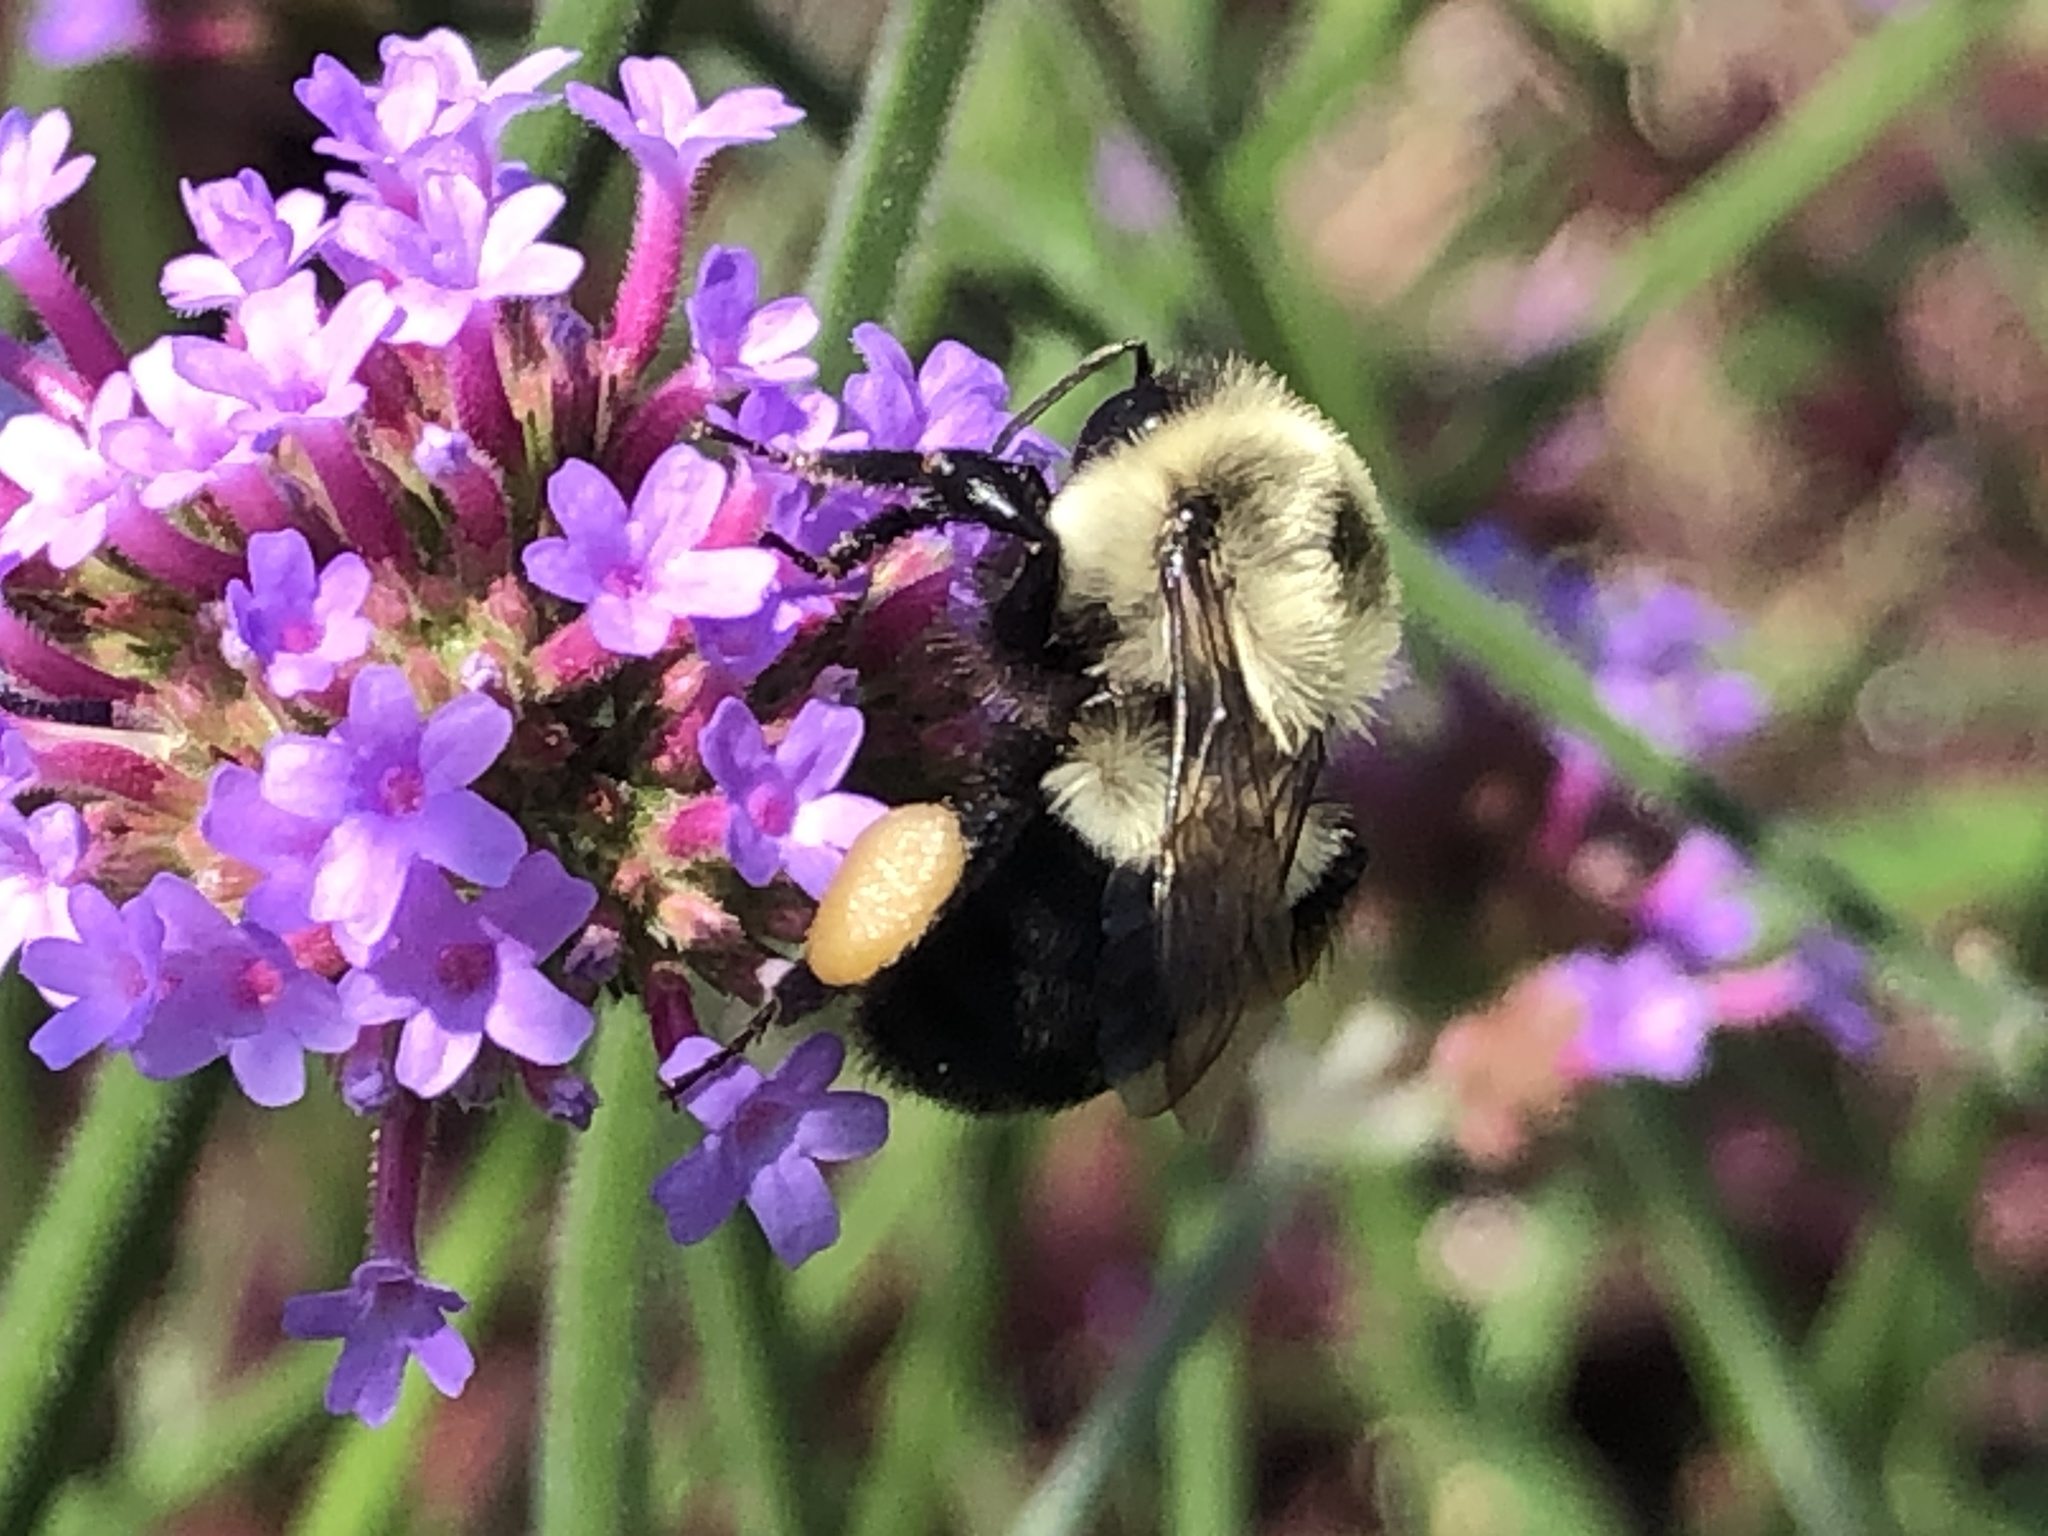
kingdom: Animalia
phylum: Arthropoda
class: Insecta
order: Hymenoptera
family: Apidae
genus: Bombus
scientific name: Bombus impatiens
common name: Common eastern bumble bee
